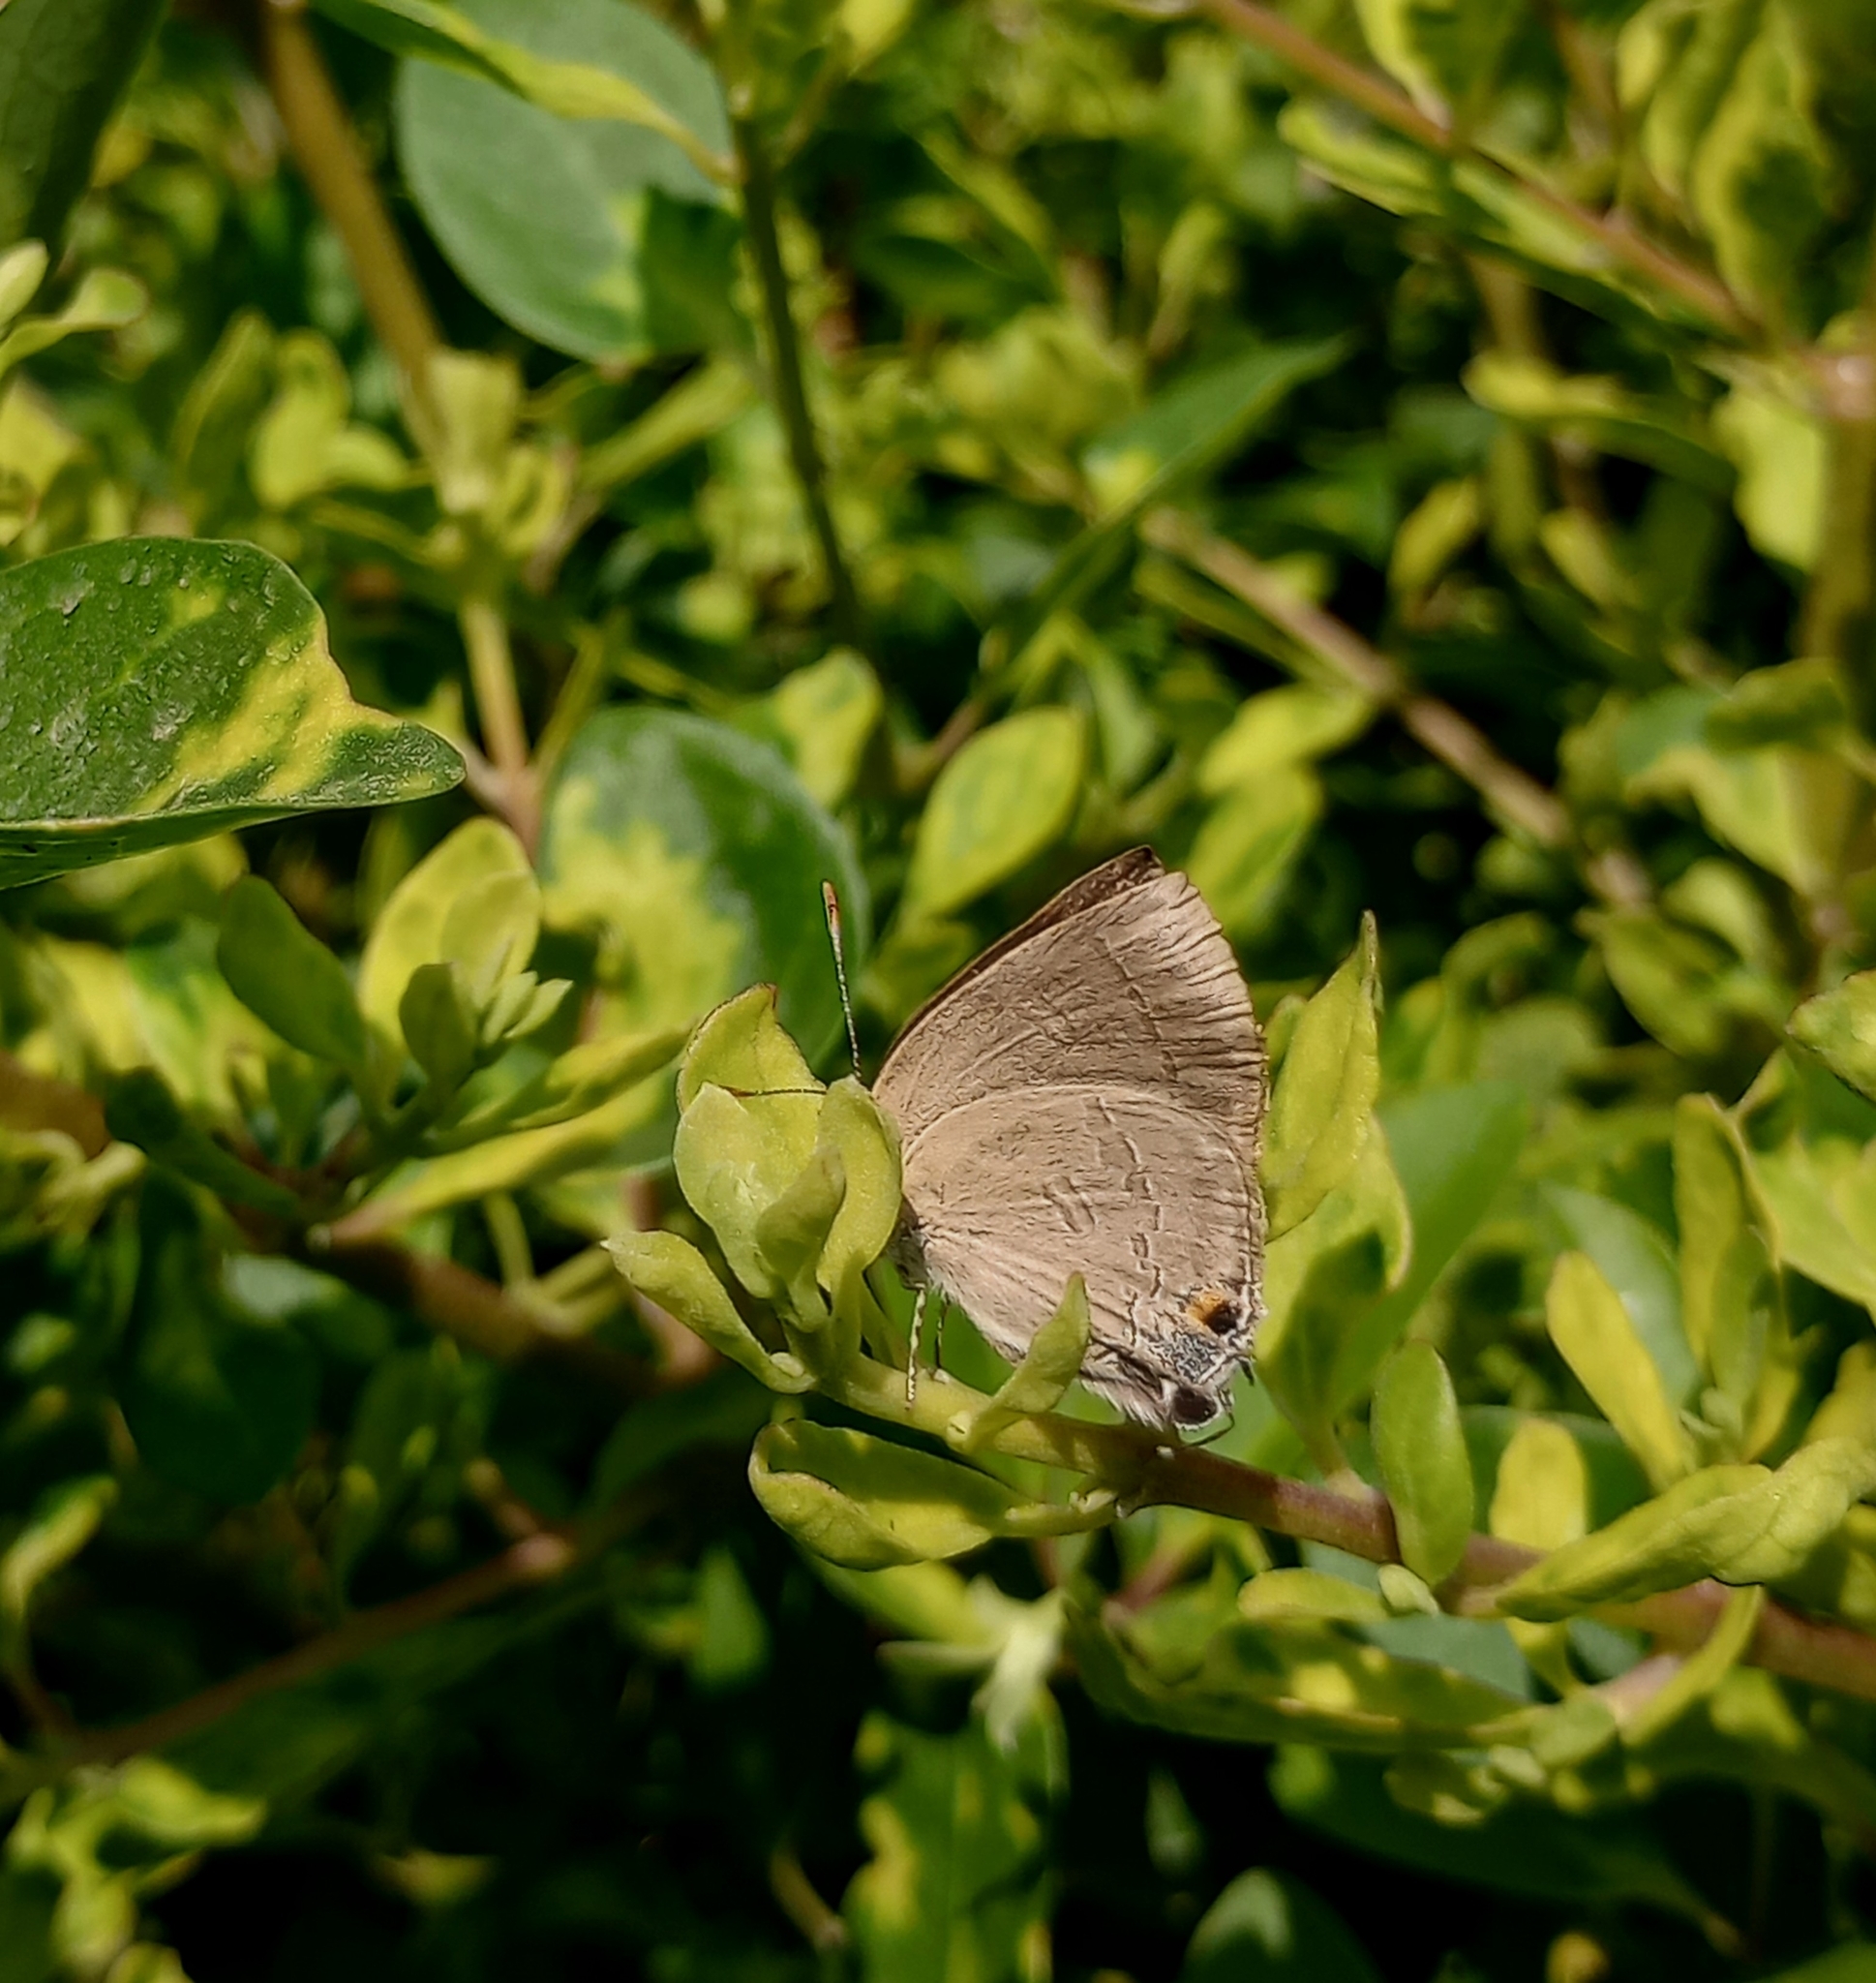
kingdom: Animalia
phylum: Arthropoda
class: Insecta
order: Lepidoptera
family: Lycaenidae
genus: Rapala
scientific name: Rapala manea
